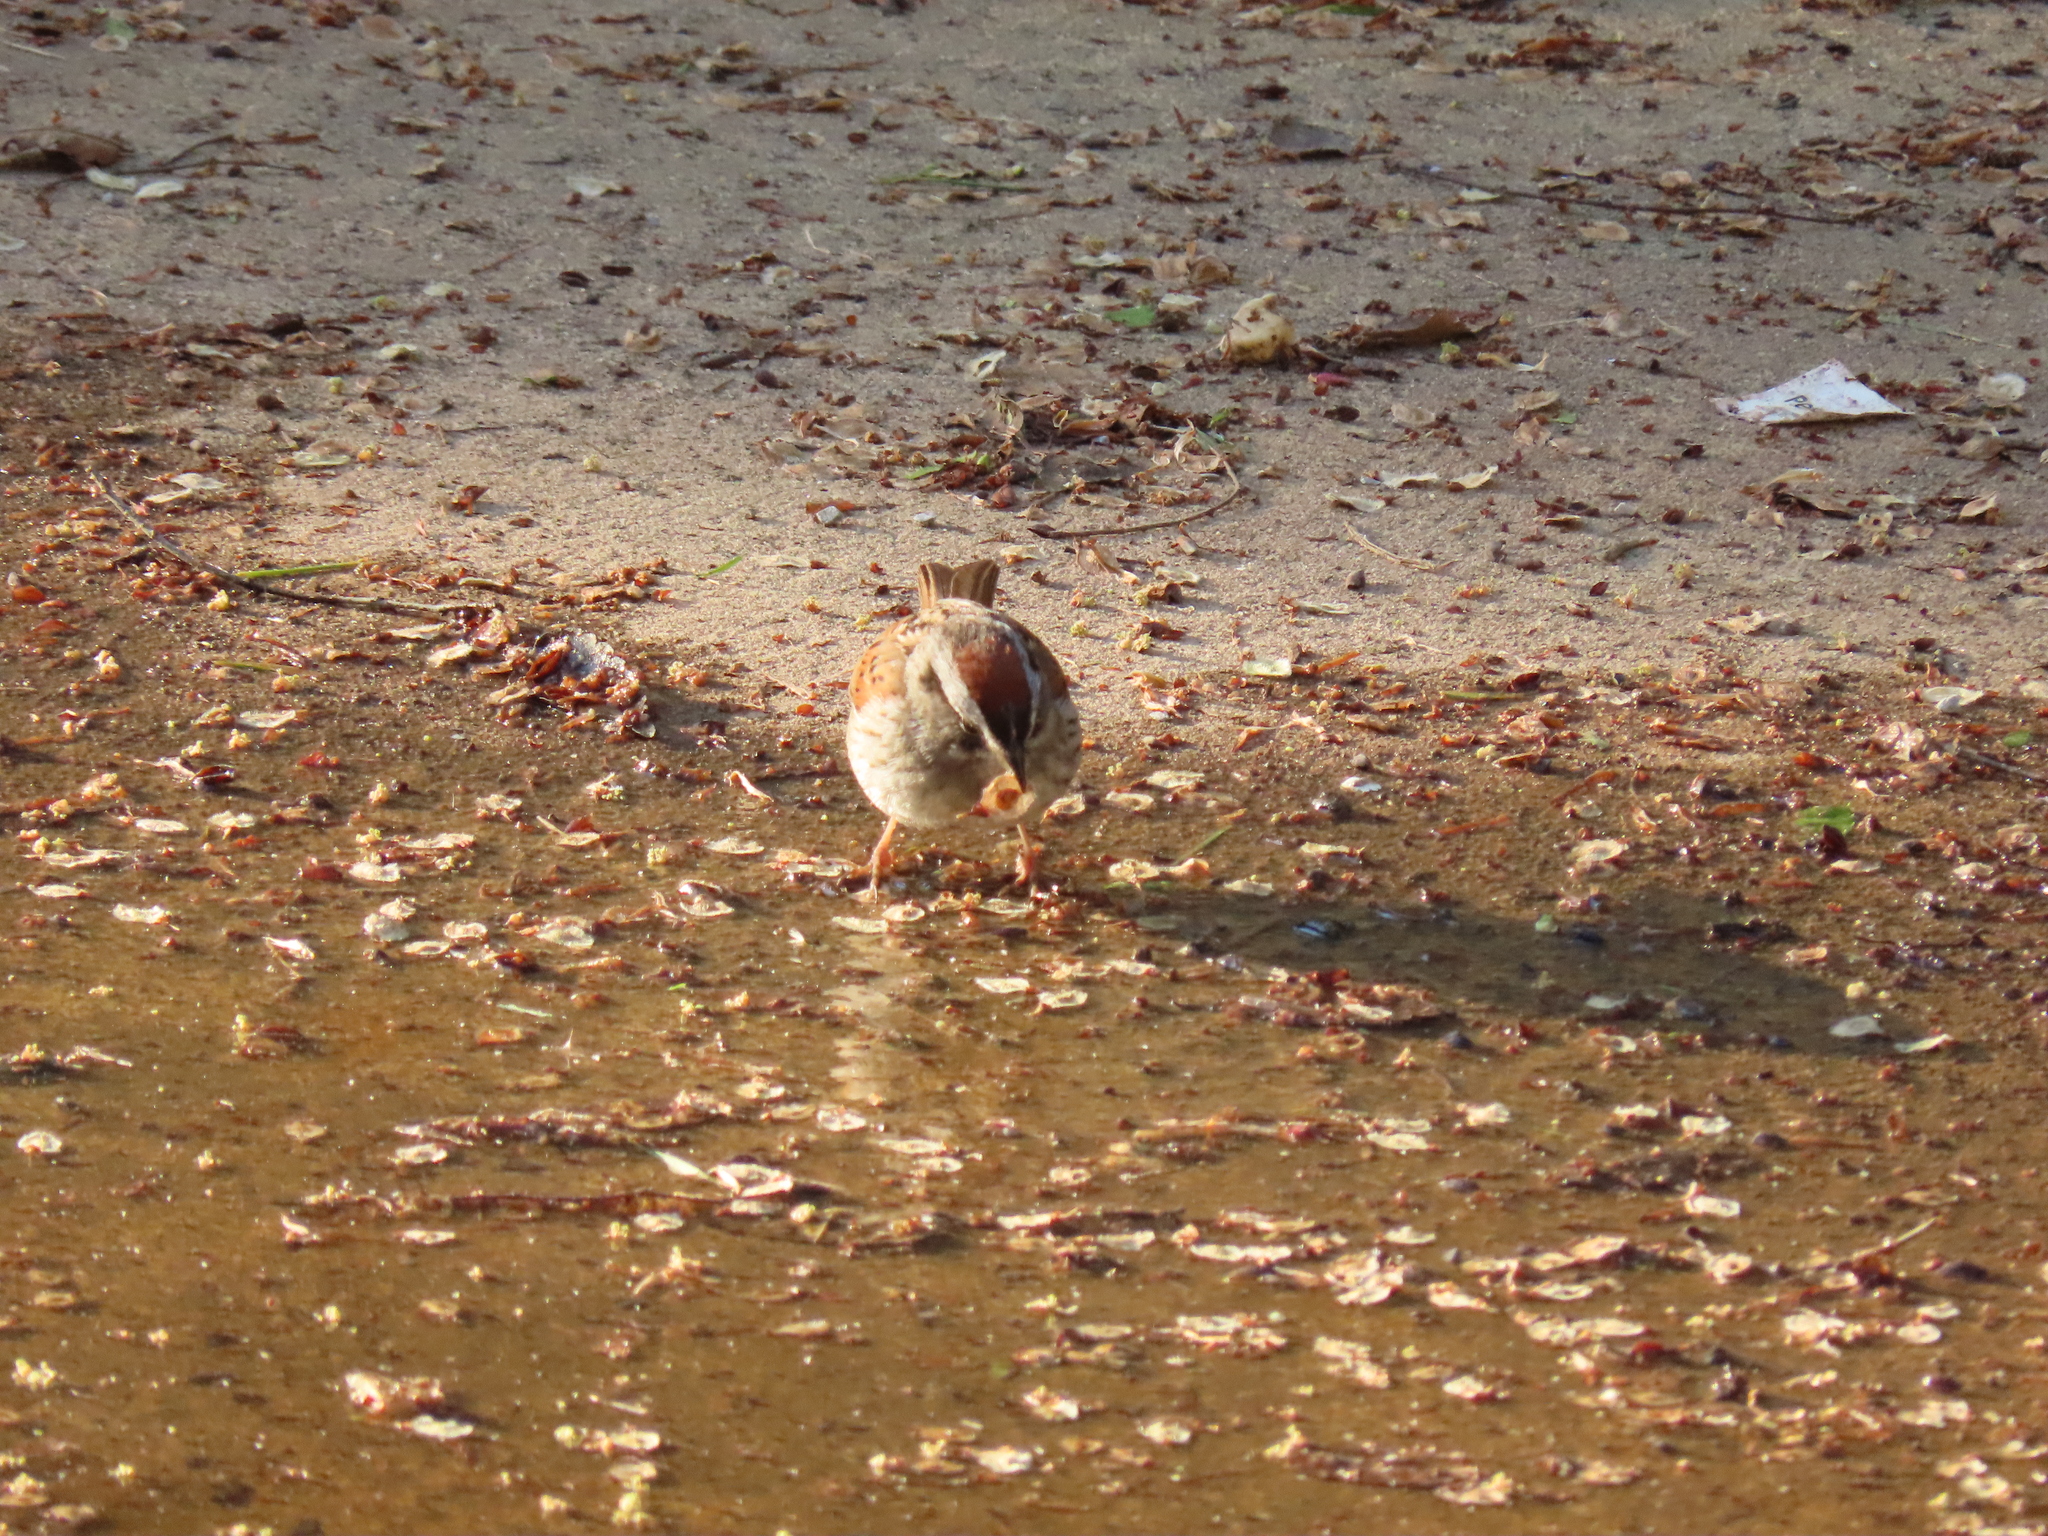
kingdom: Animalia
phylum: Chordata
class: Aves
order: Passeriformes
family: Passerellidae
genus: Melospiza
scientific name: Melospiza georgiana
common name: Swamp sparrow
